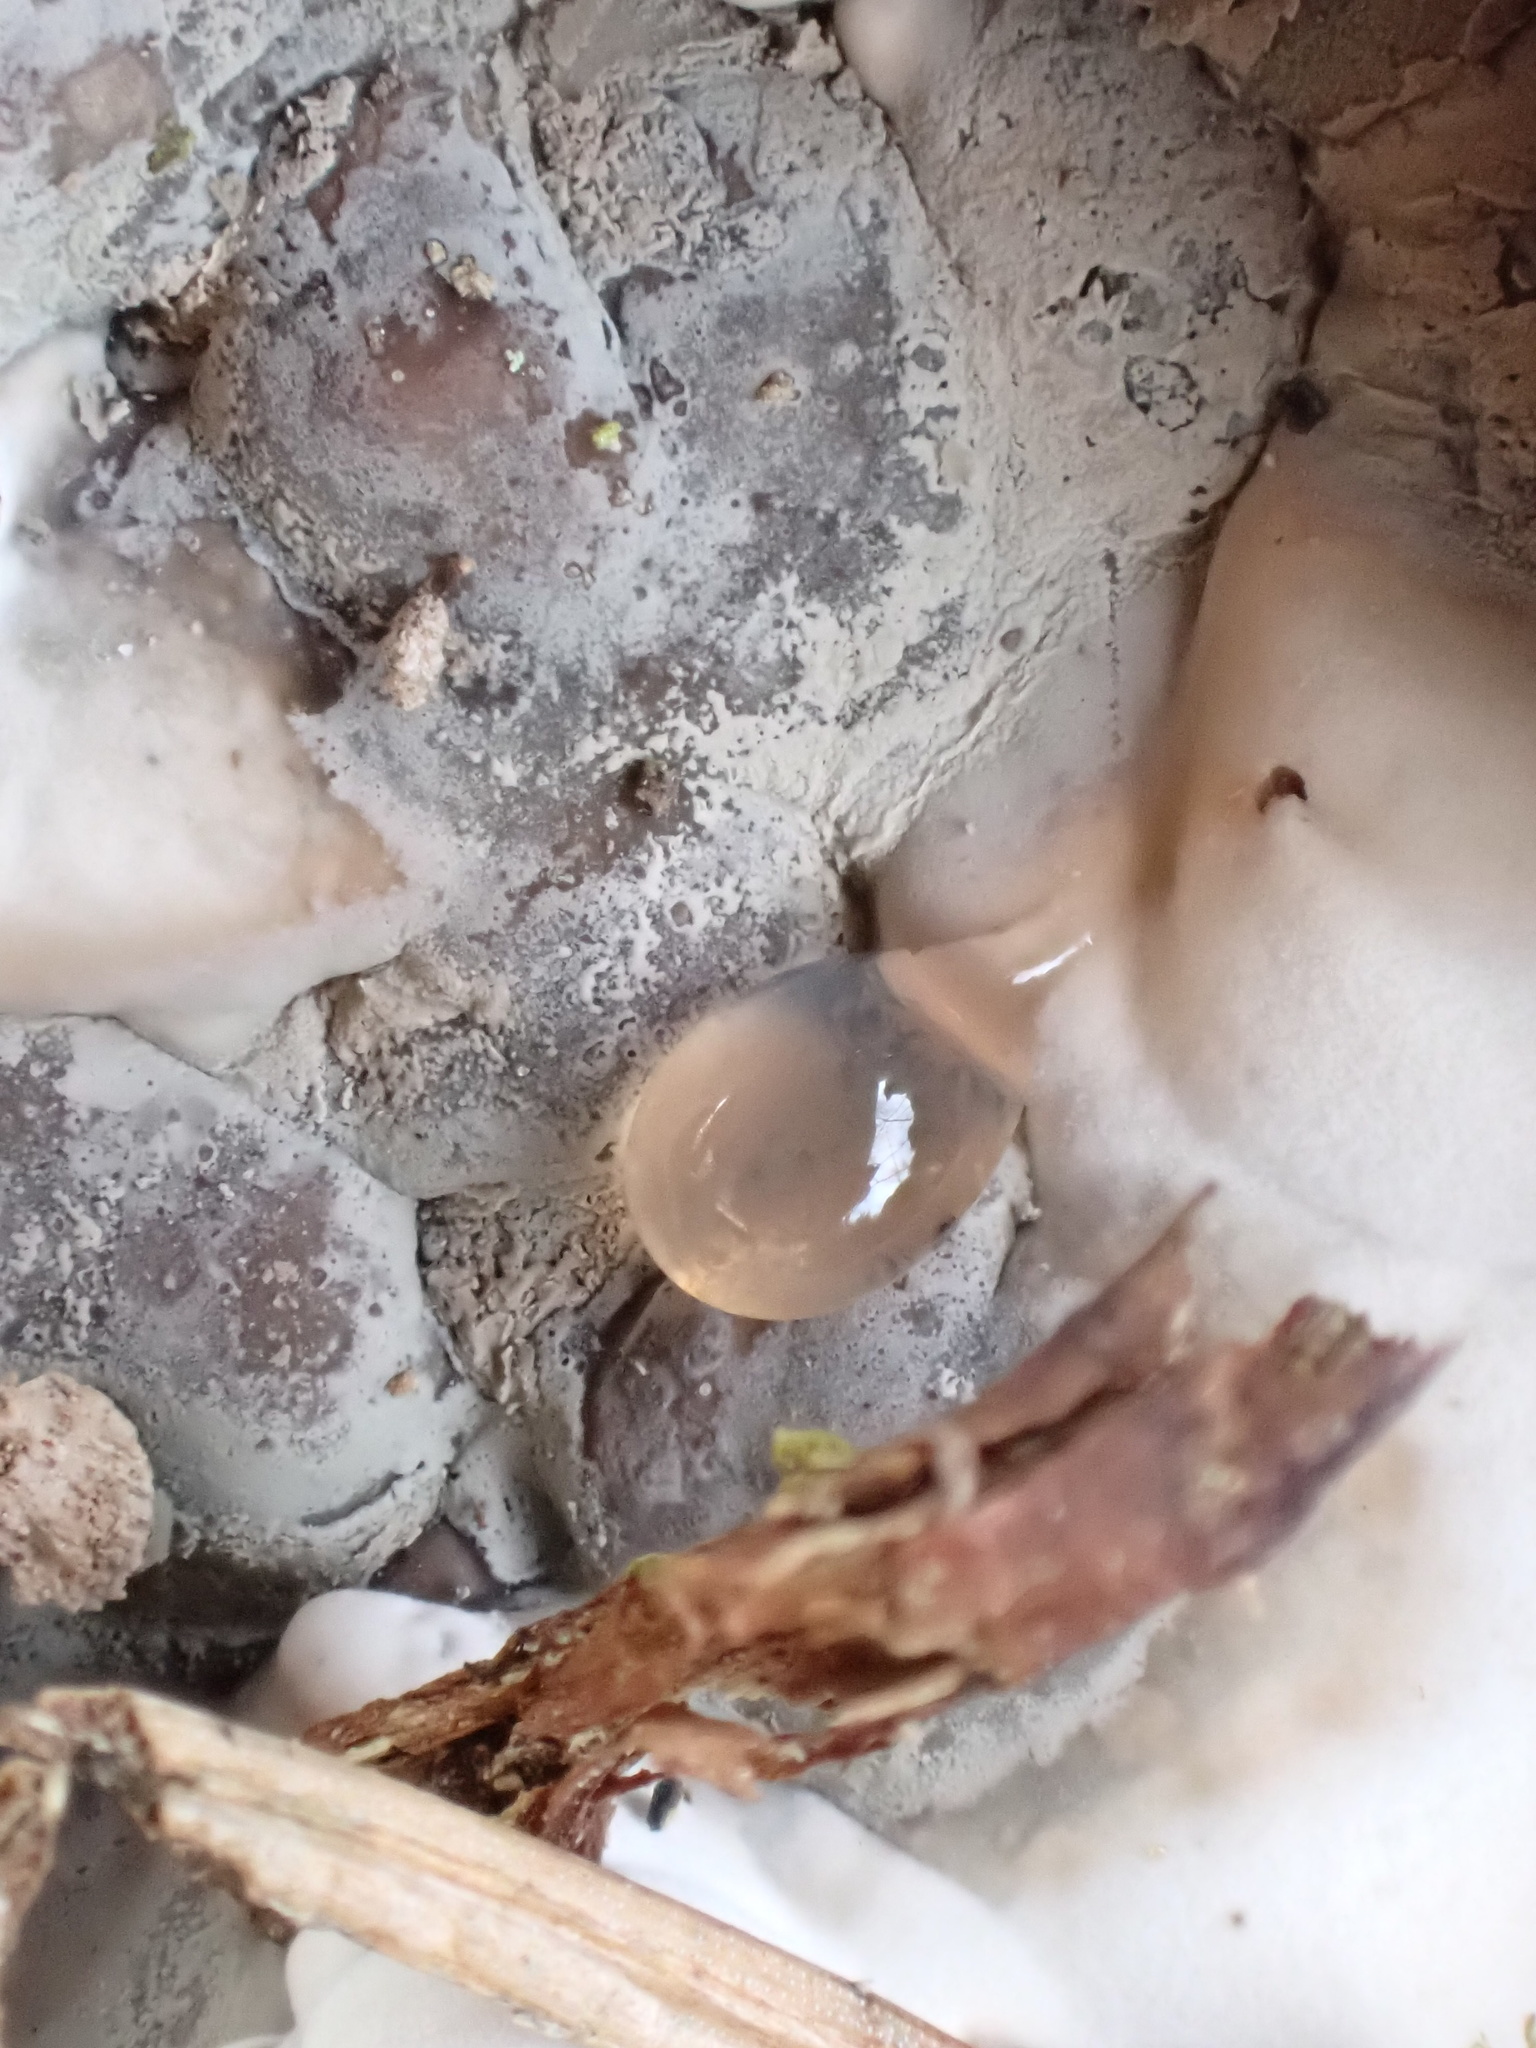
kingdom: Fungi
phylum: Ascomycota
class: Sordariomycetes
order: Xylariales
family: Xylariaceae
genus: Kretzschmaria
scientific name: Kretzschmaria deusta
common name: Brittle cinder
